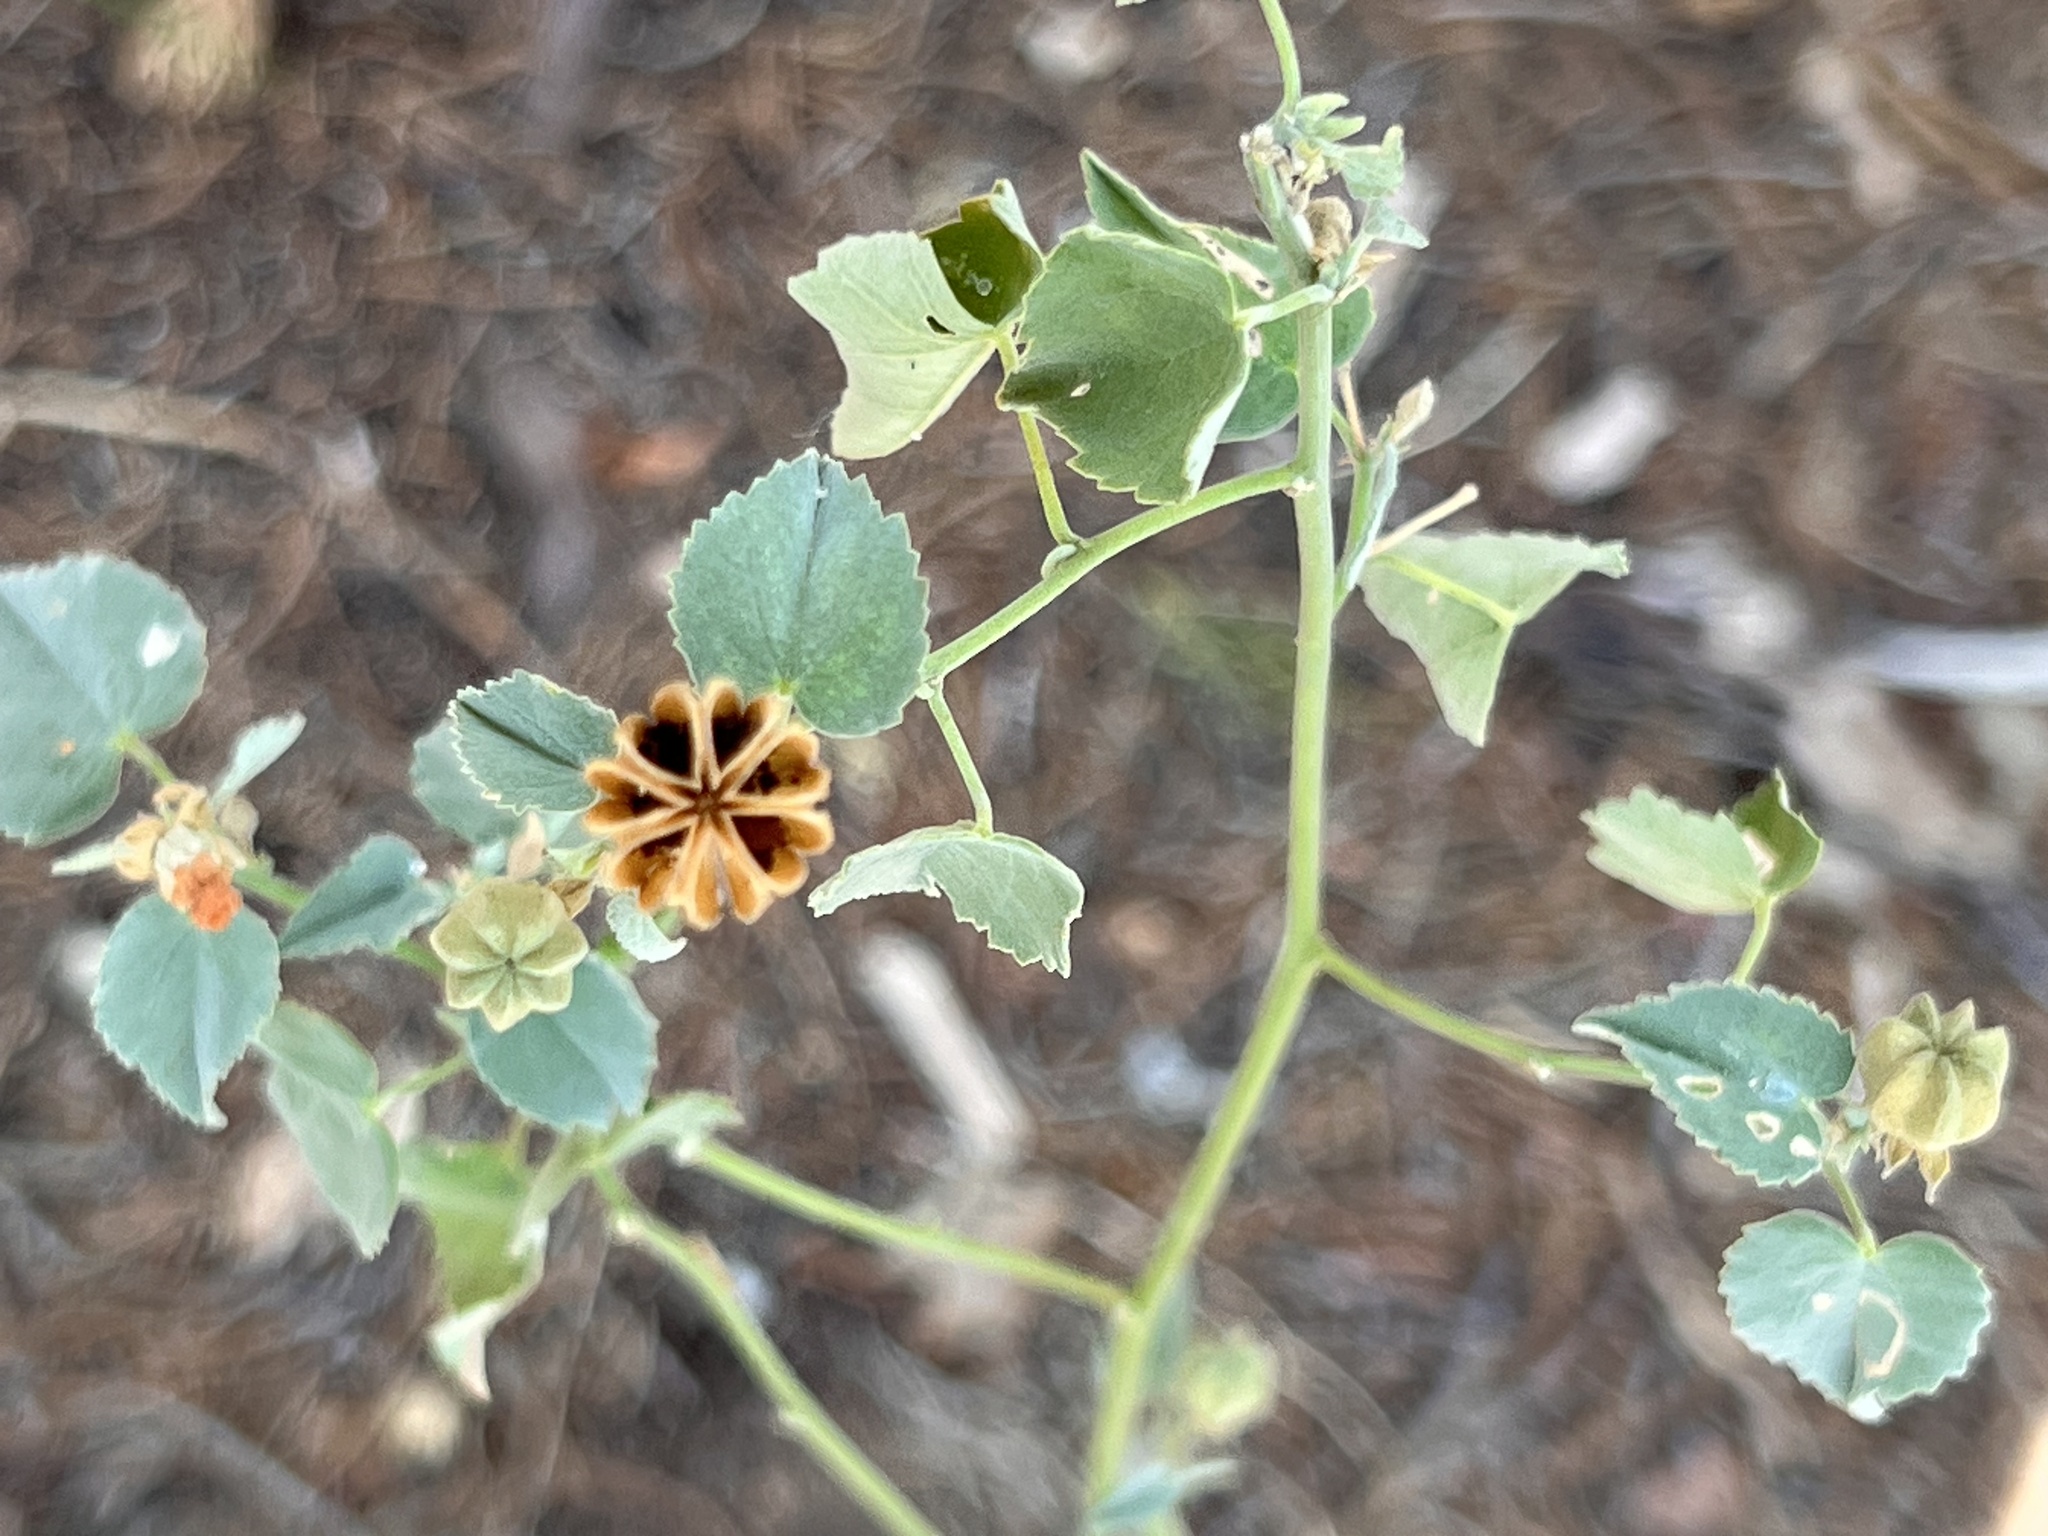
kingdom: Plantae
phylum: Tracheophyta
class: Magnoliopsida
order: Malvales
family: Malvaceae
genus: Abutilon
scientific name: Abutilon fruticosum
